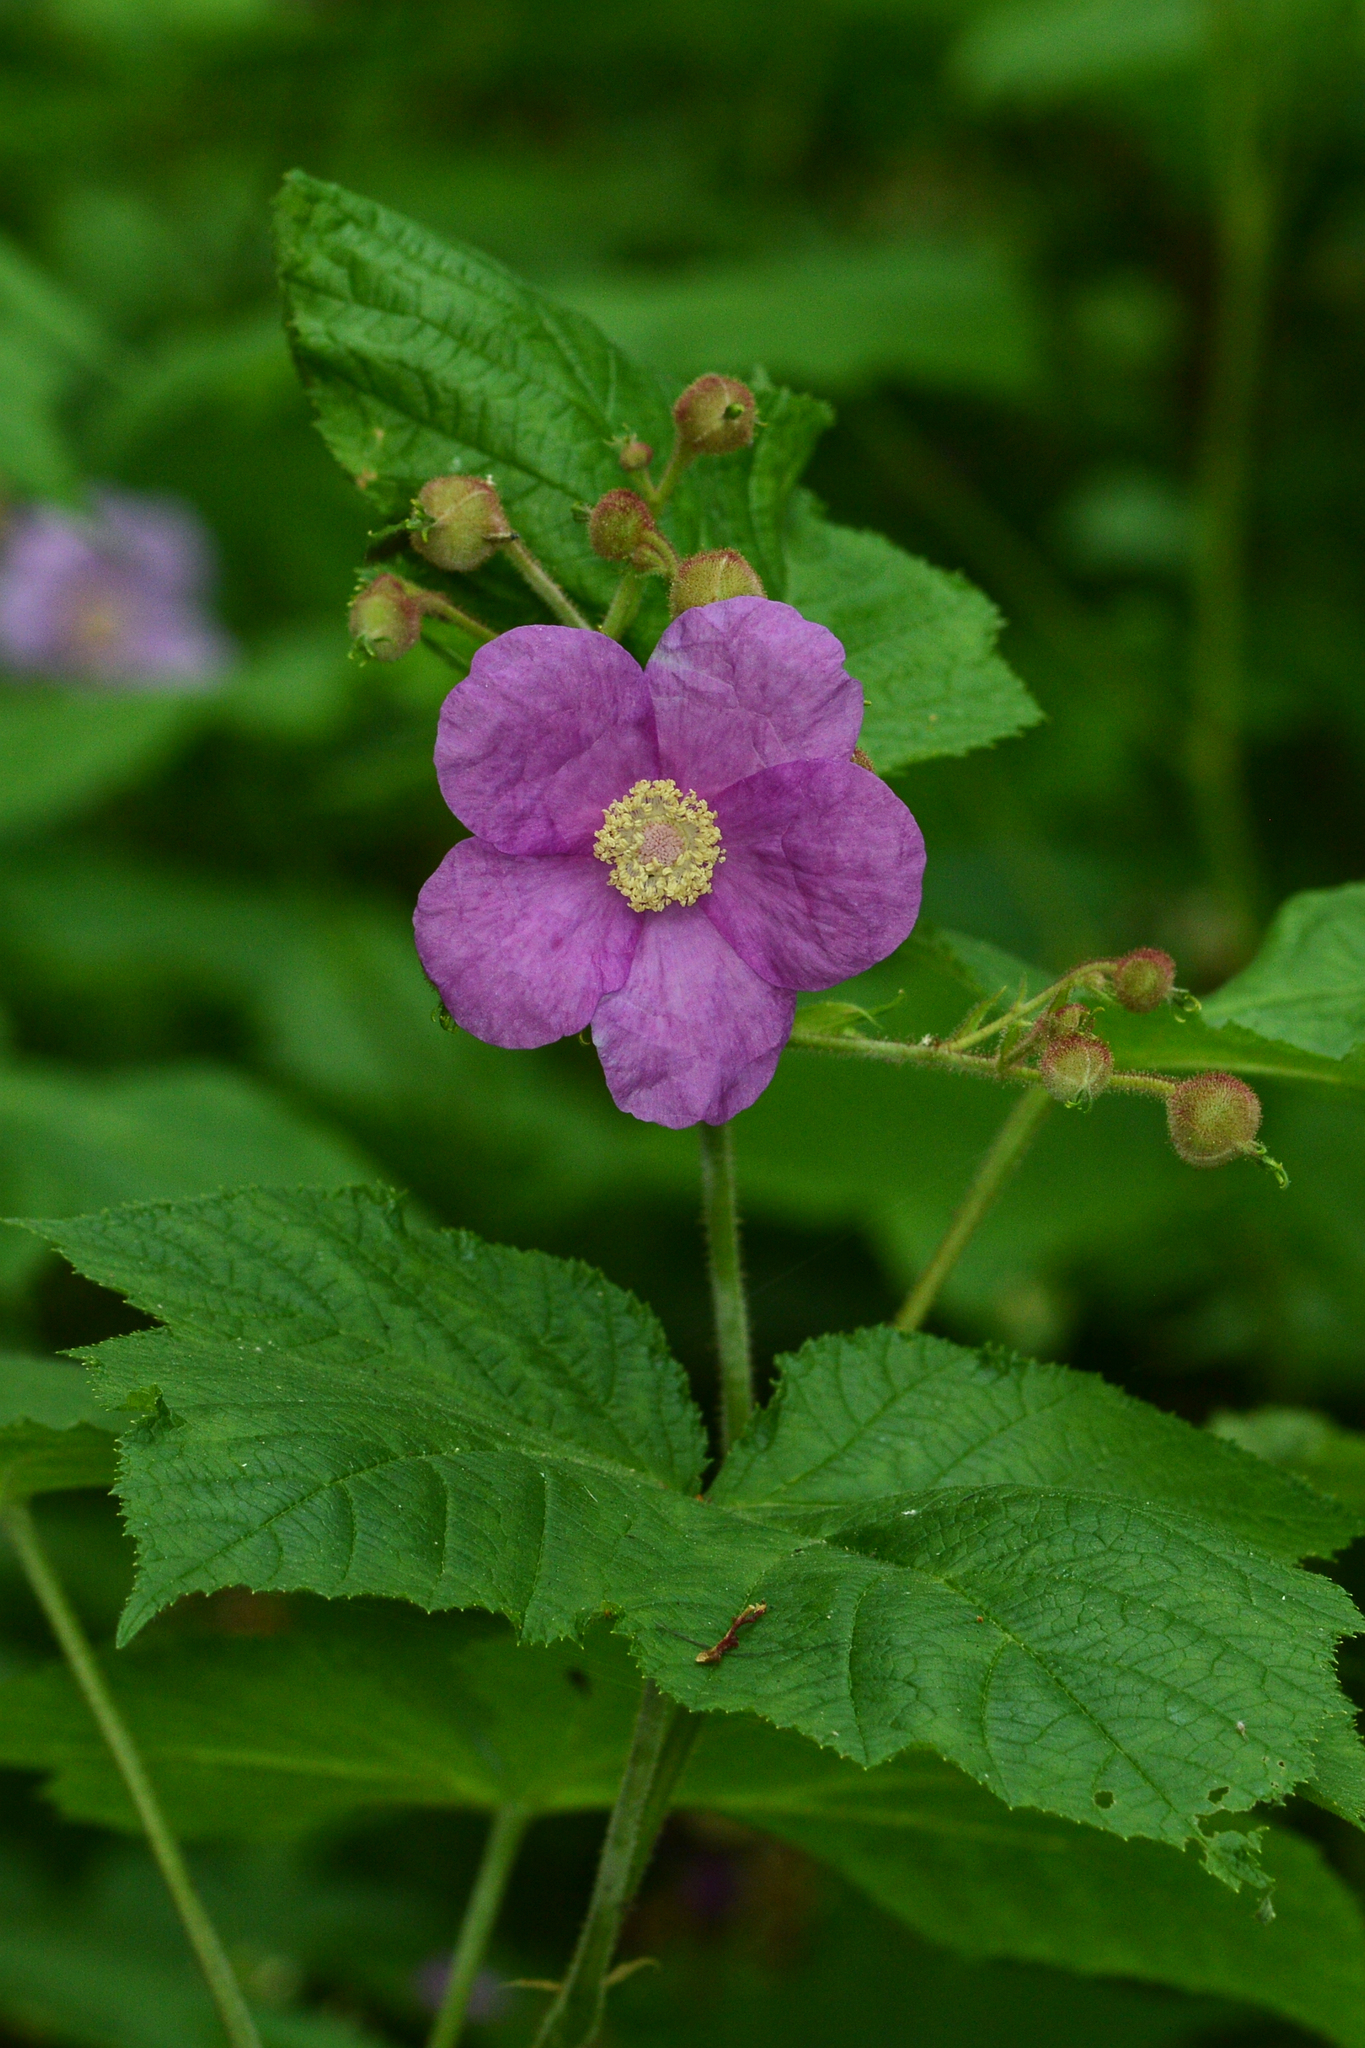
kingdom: Plantae
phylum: Tracheophyta
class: Magnoliopsida
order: Rosales
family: Rosaceae
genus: Rubus
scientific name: Rubus odoratus
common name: Purple-flowered raspberry
